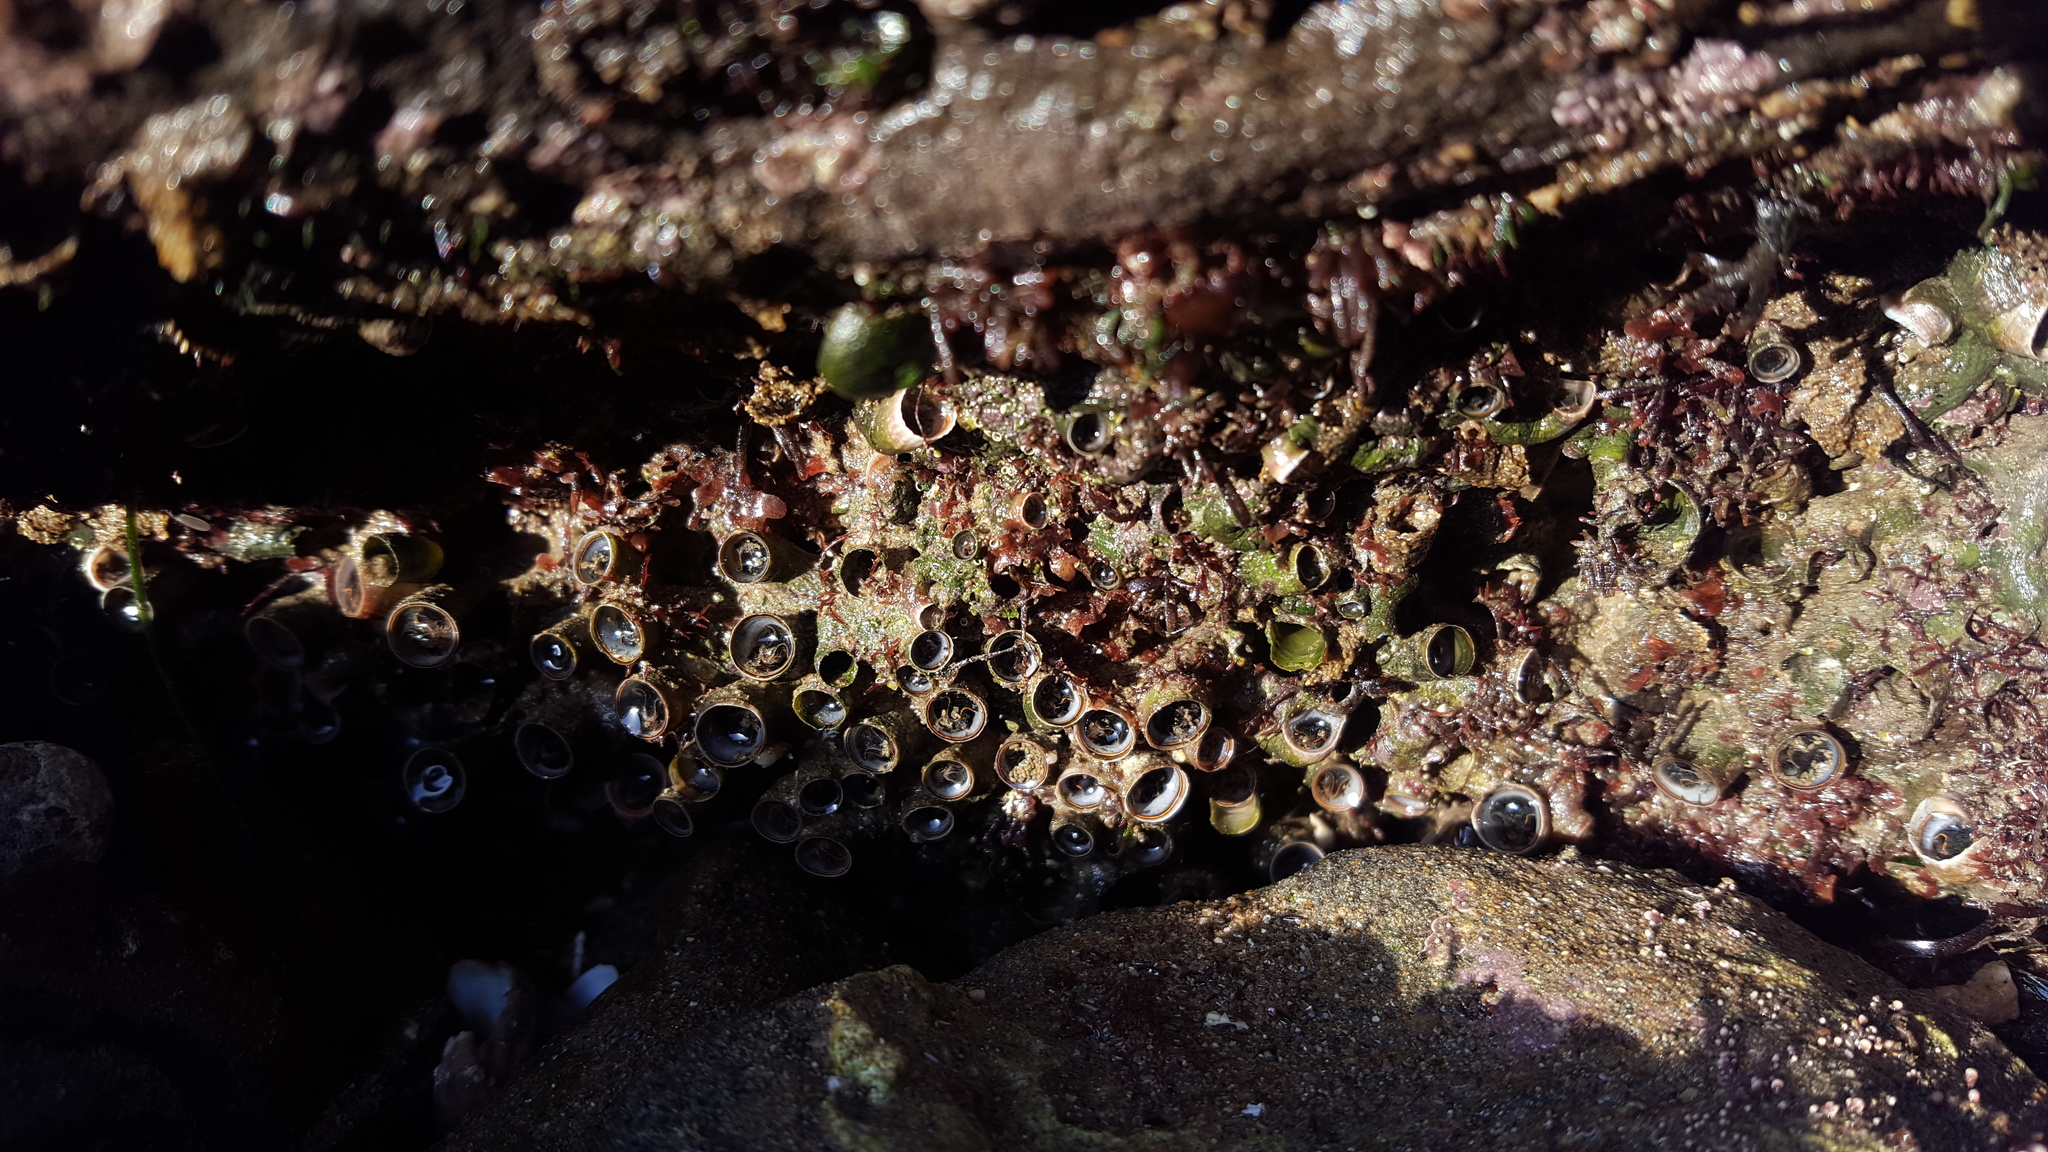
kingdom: Animalia
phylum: Mollusca
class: Gastropoda
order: Littorinimorpha
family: Vermetidae
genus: Thylacodes
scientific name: Thylacodes squamigerus
